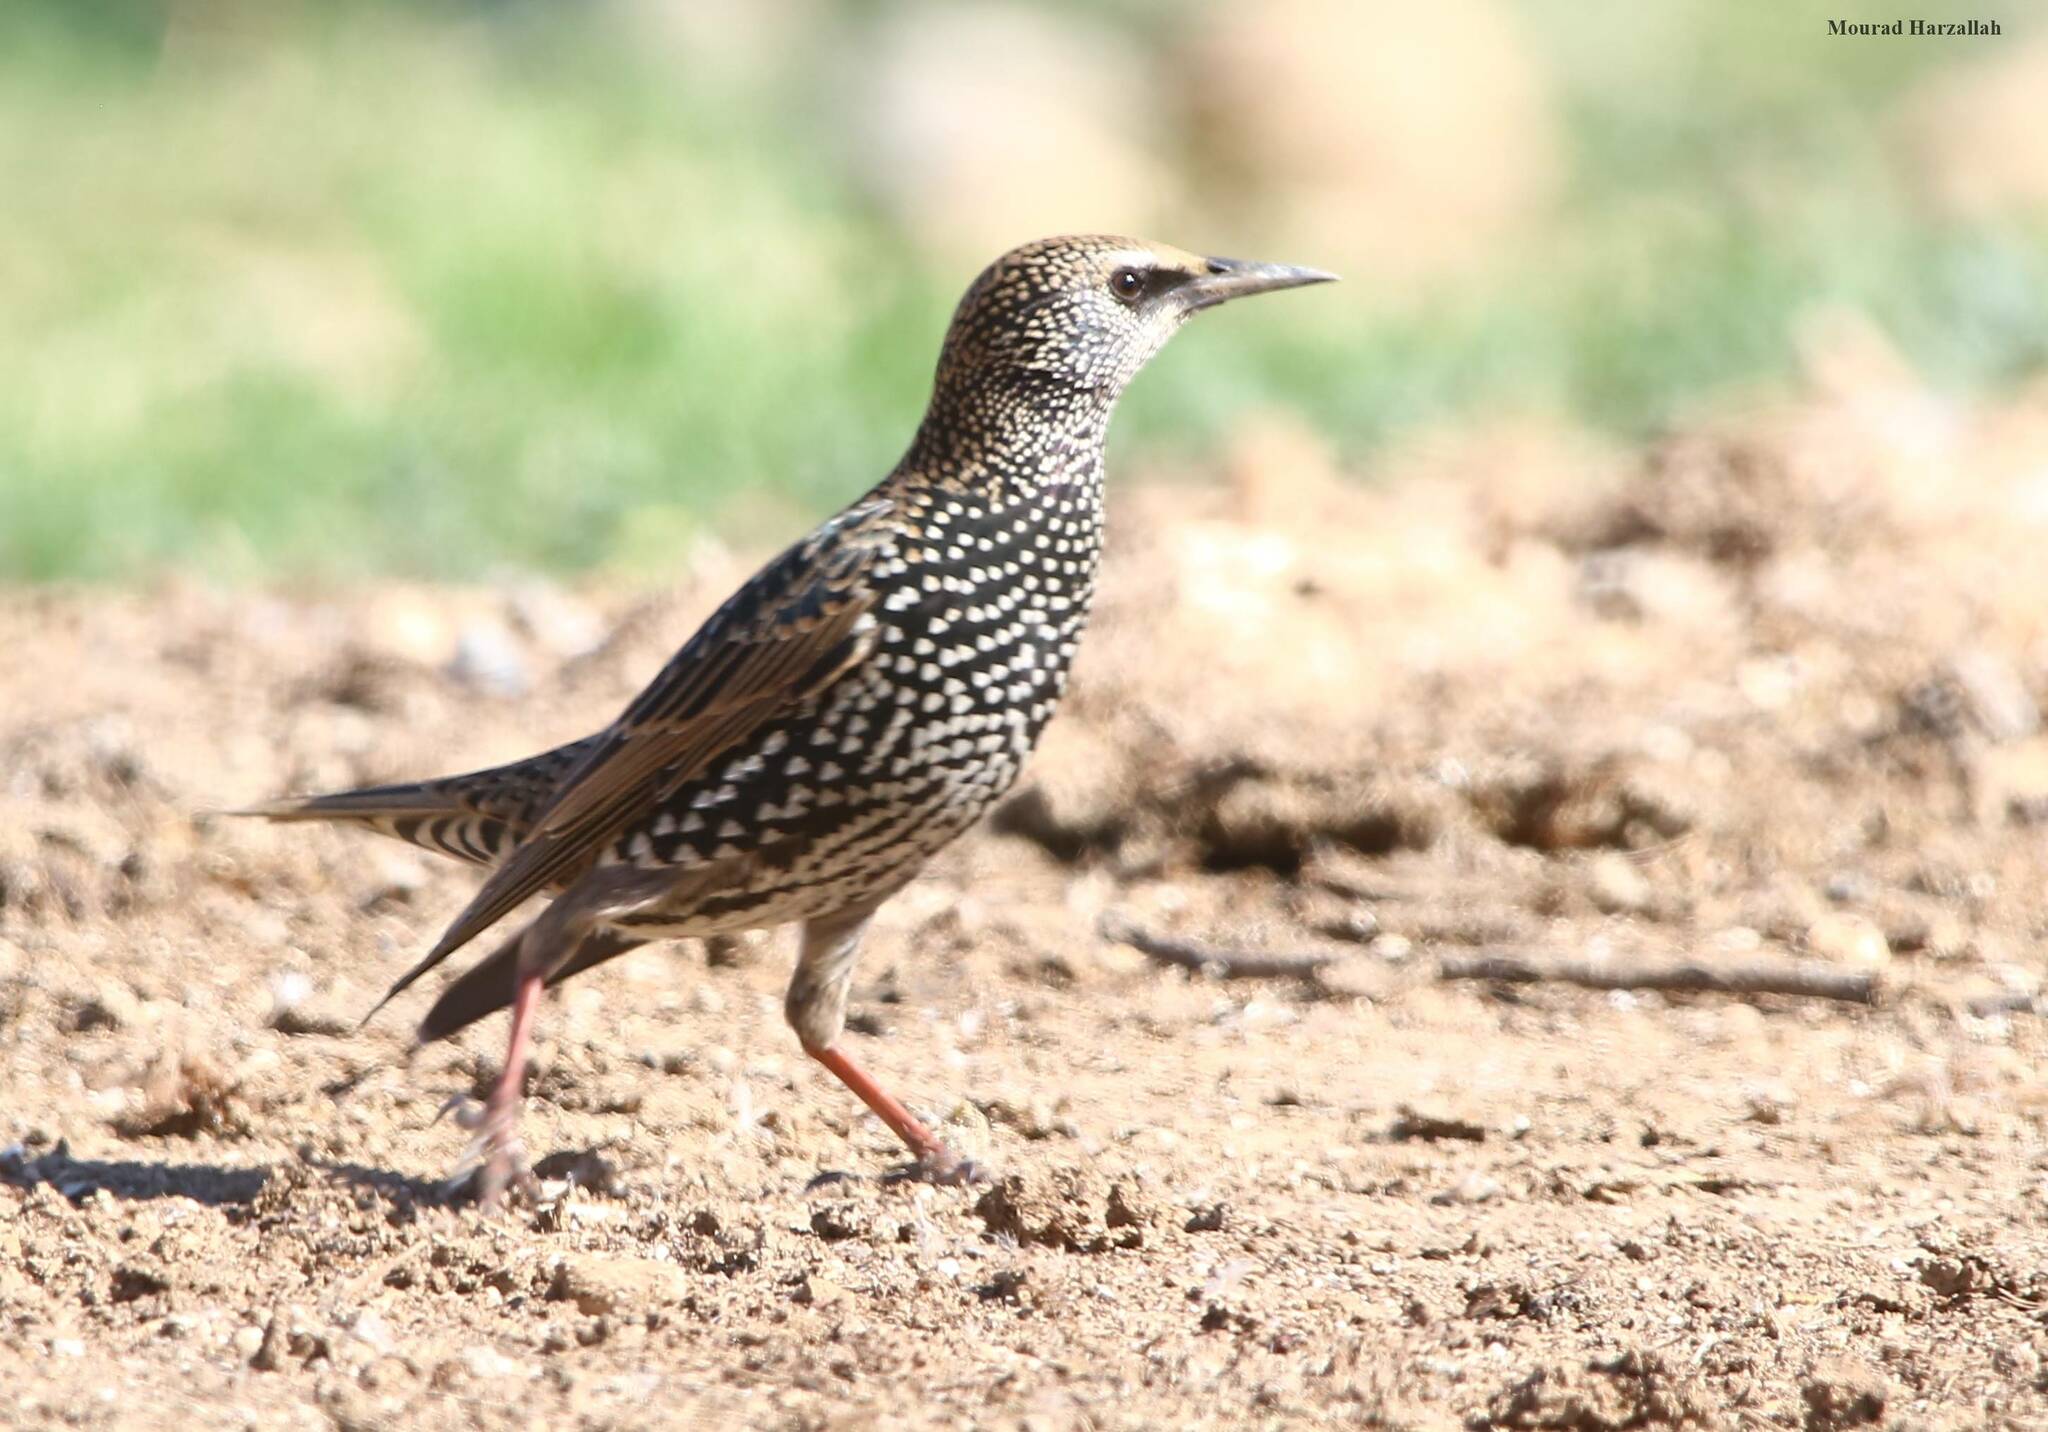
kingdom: Animalia
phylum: Chordata
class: Aves
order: Passeriformes
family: Sturnidae
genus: Sturnus
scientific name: Sturnus vulgaris
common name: Common starling
